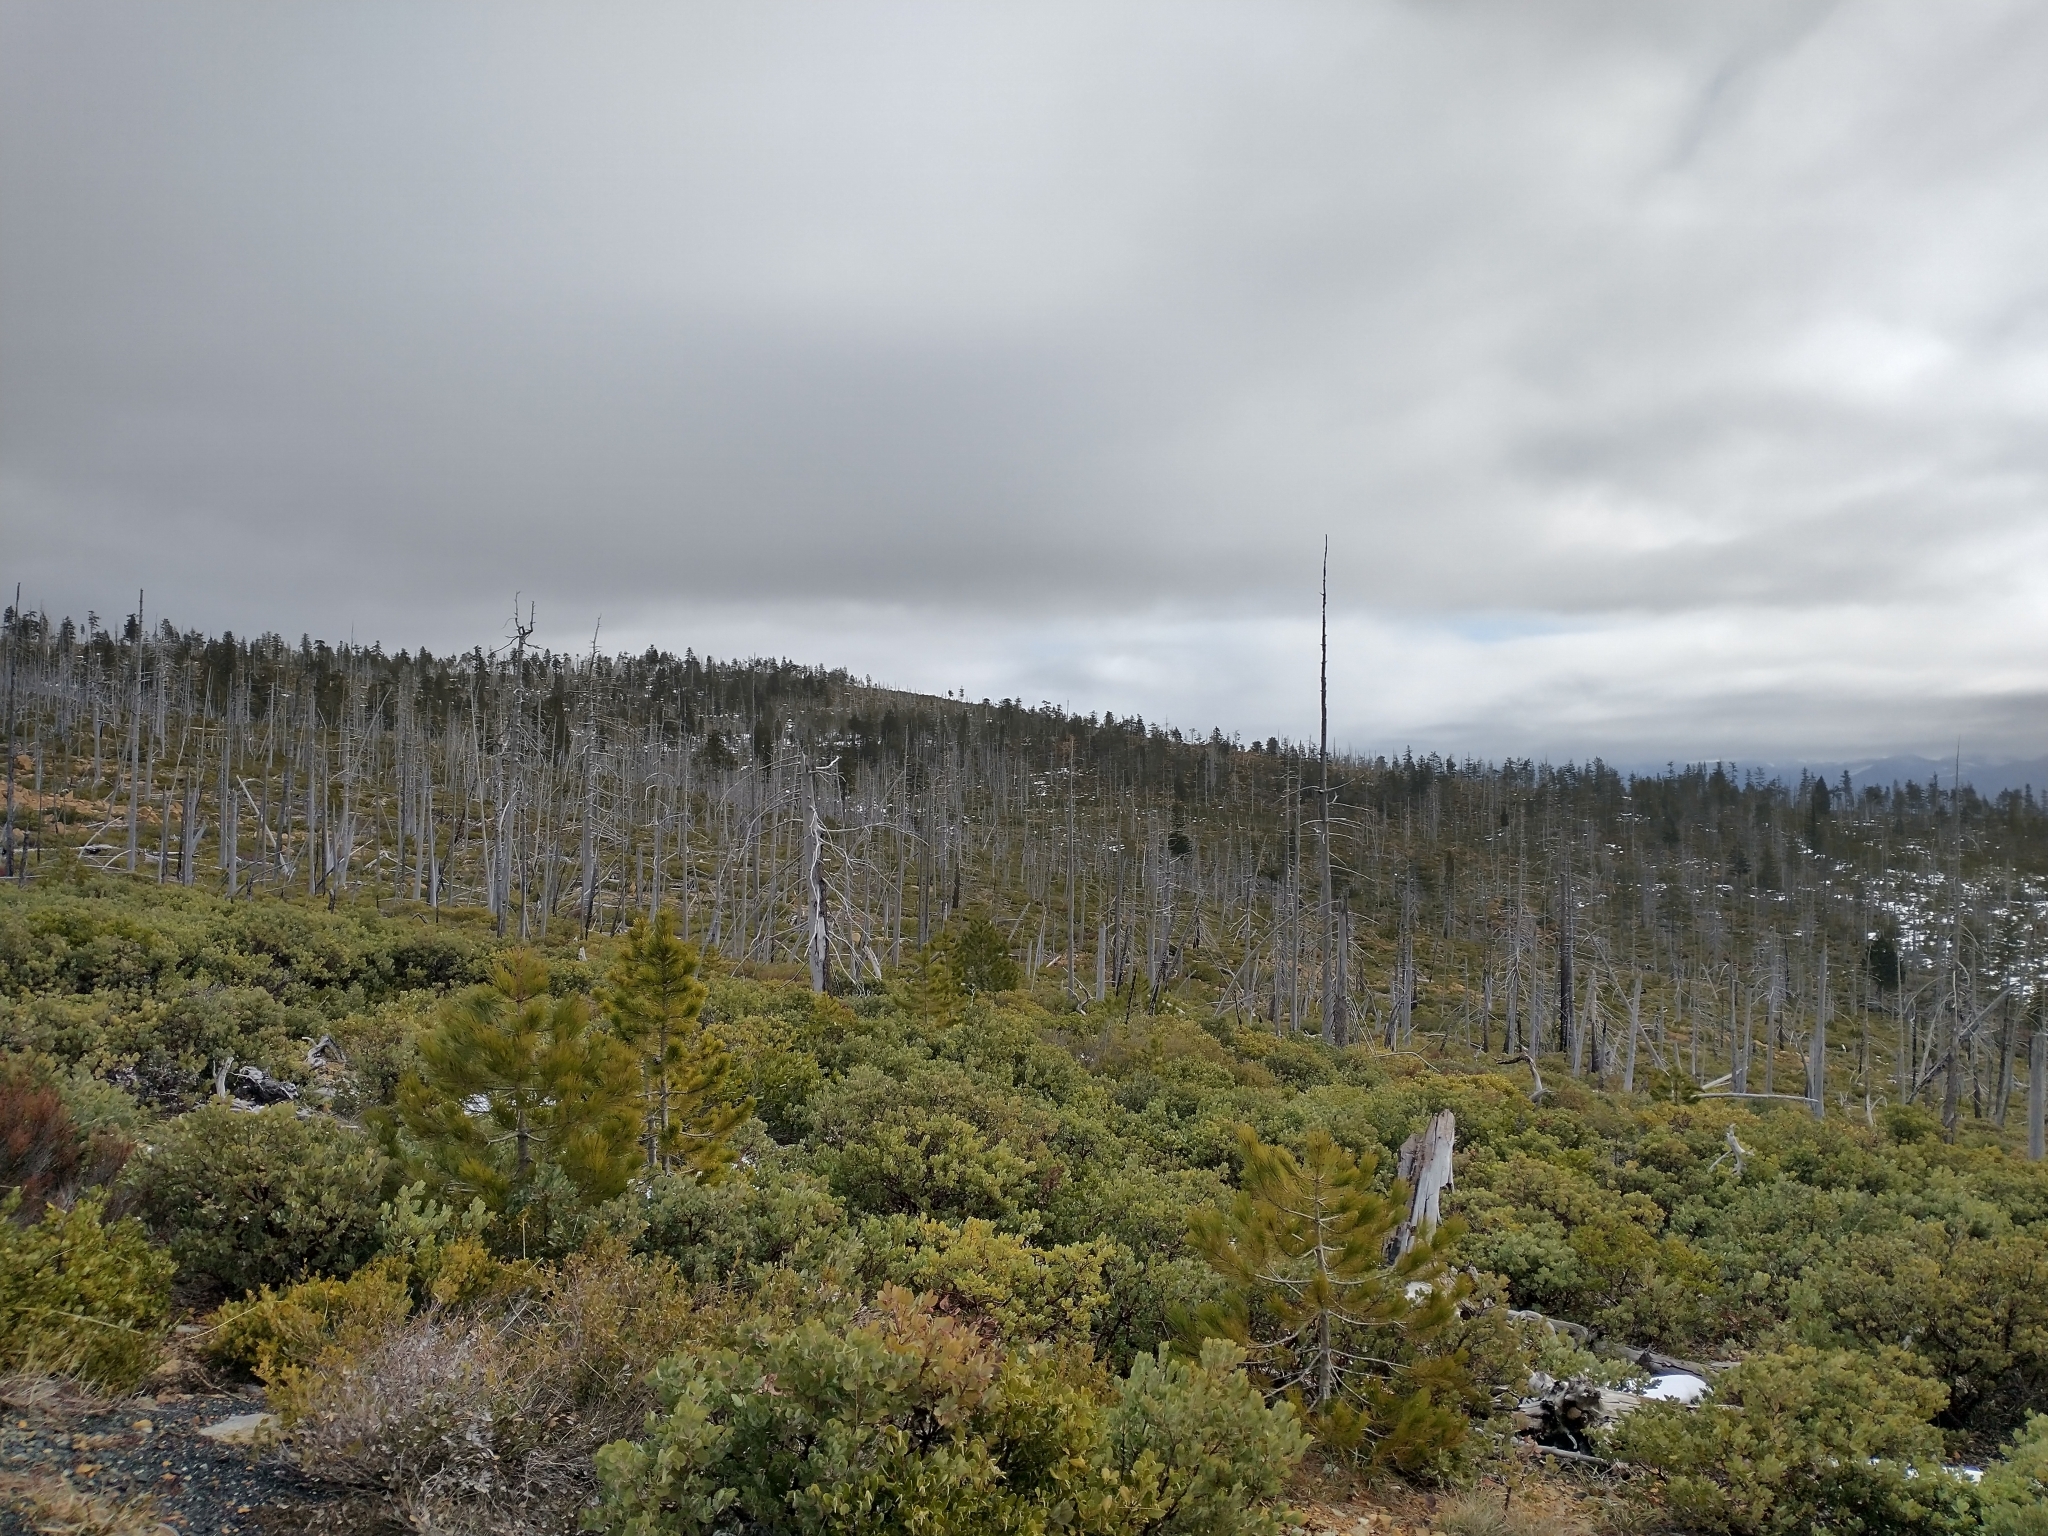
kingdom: Plantae
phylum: Tracheophyta
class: Pinopsida
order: Pinales
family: Pinaceae
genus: Pinus
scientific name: Pinus attenuata
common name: Knobcone pine
